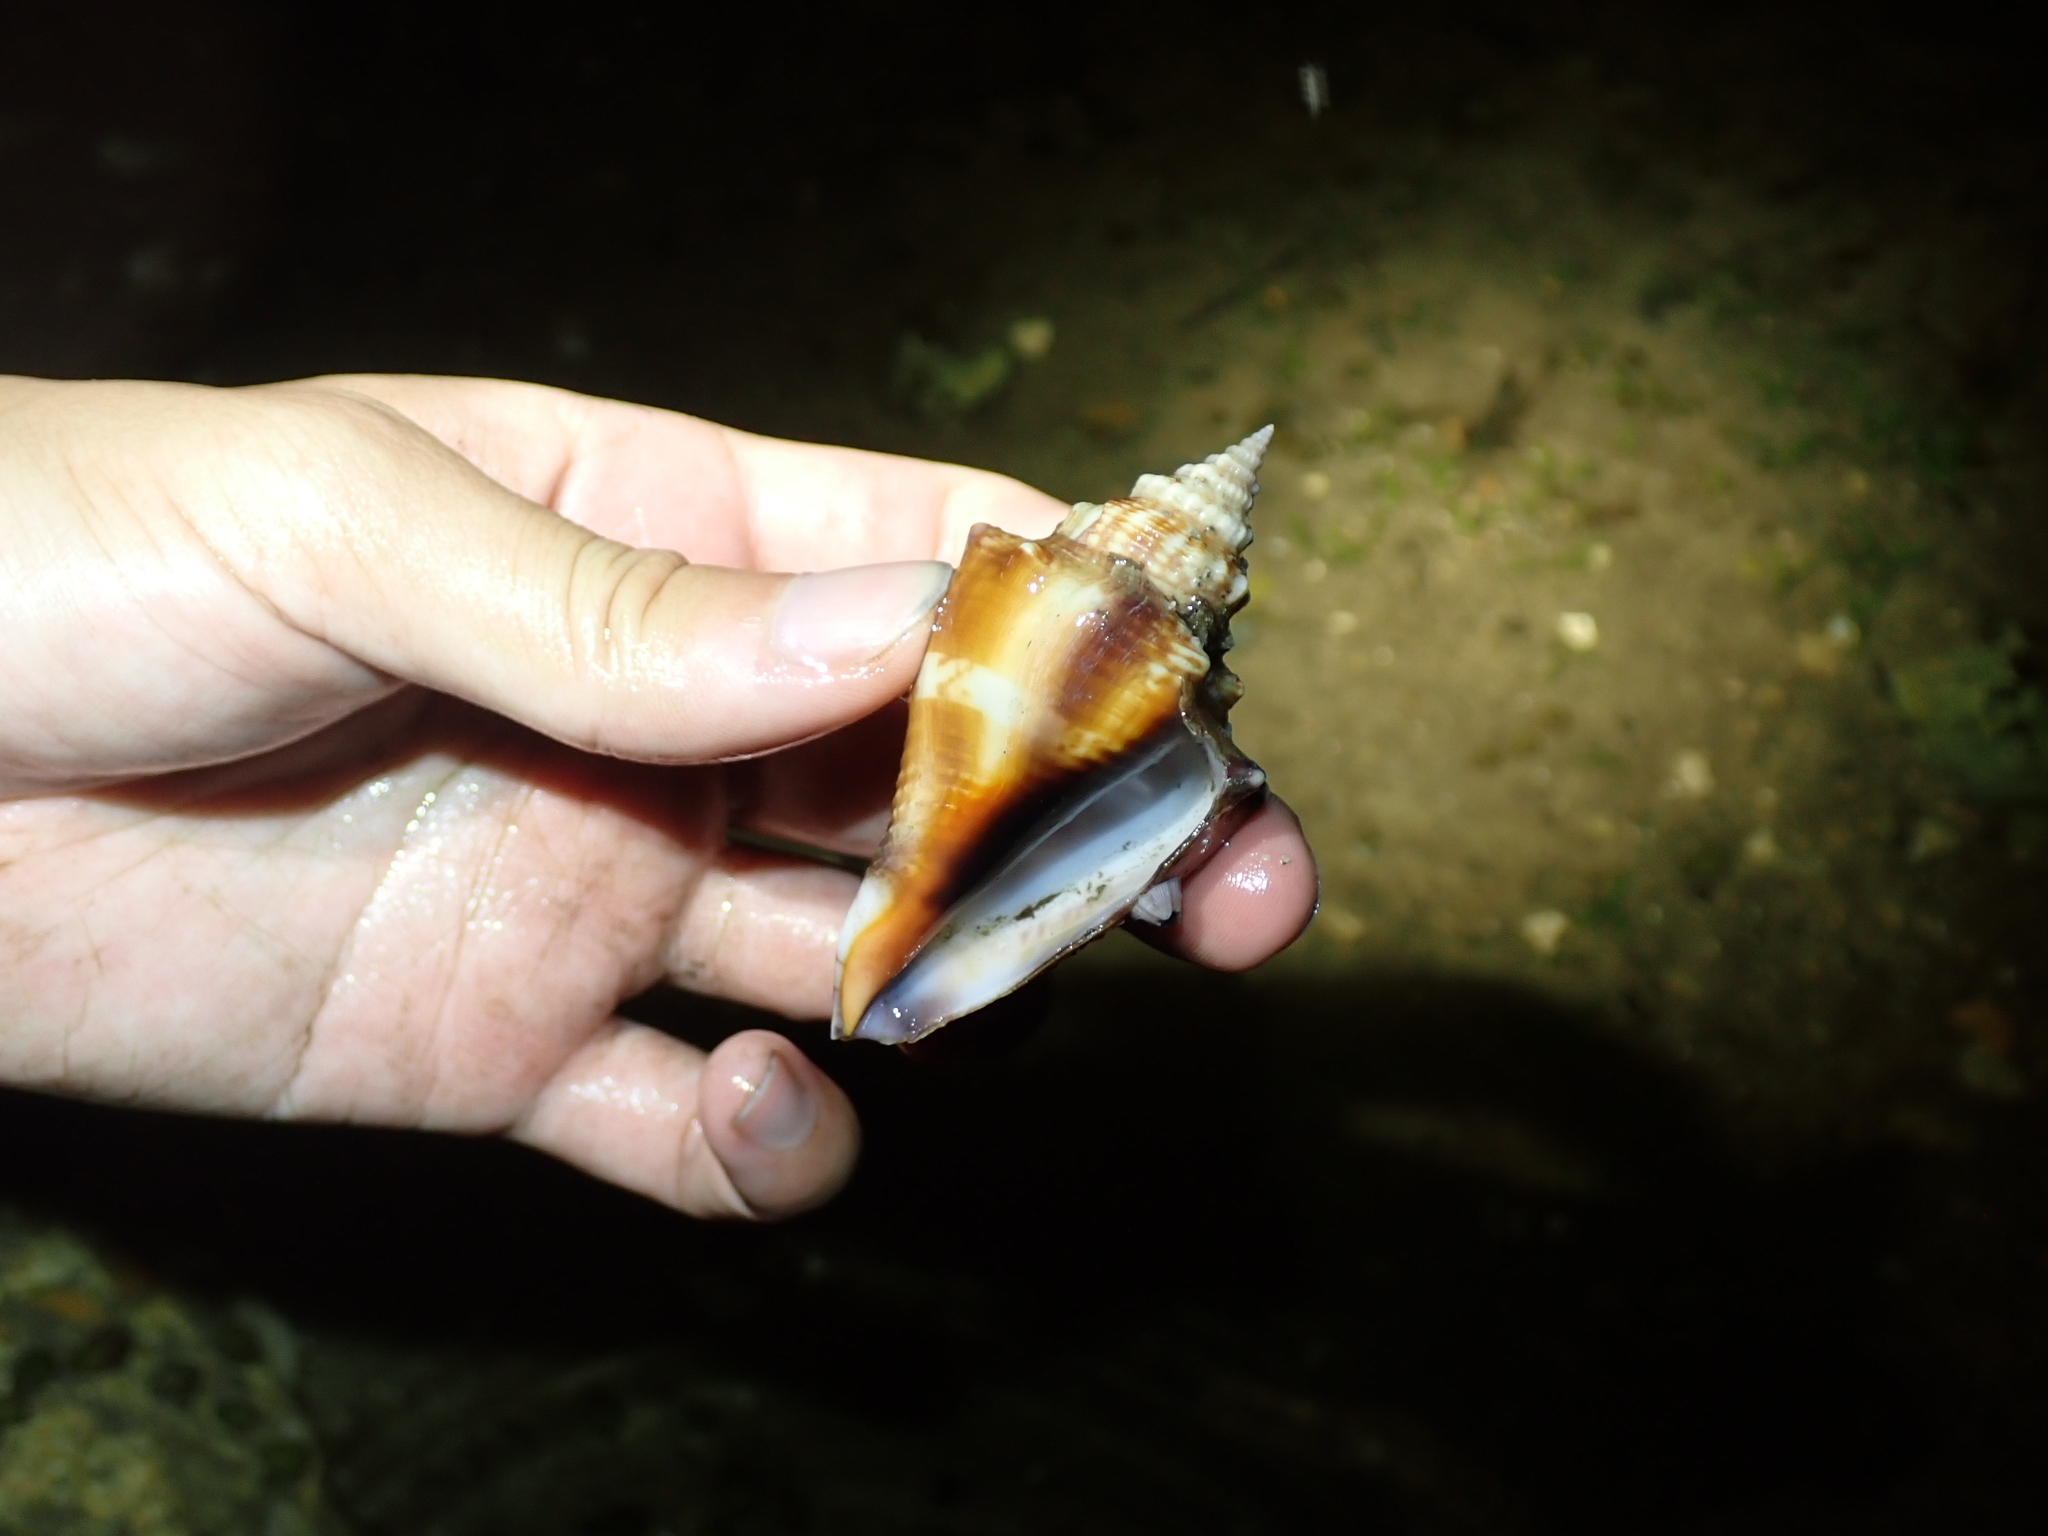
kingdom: Animalia
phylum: Mollusca
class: Gastropoda
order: Littorinimorpha
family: Strombidae
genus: Strombus
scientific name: Strombus alatus
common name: Florida fighting conch
